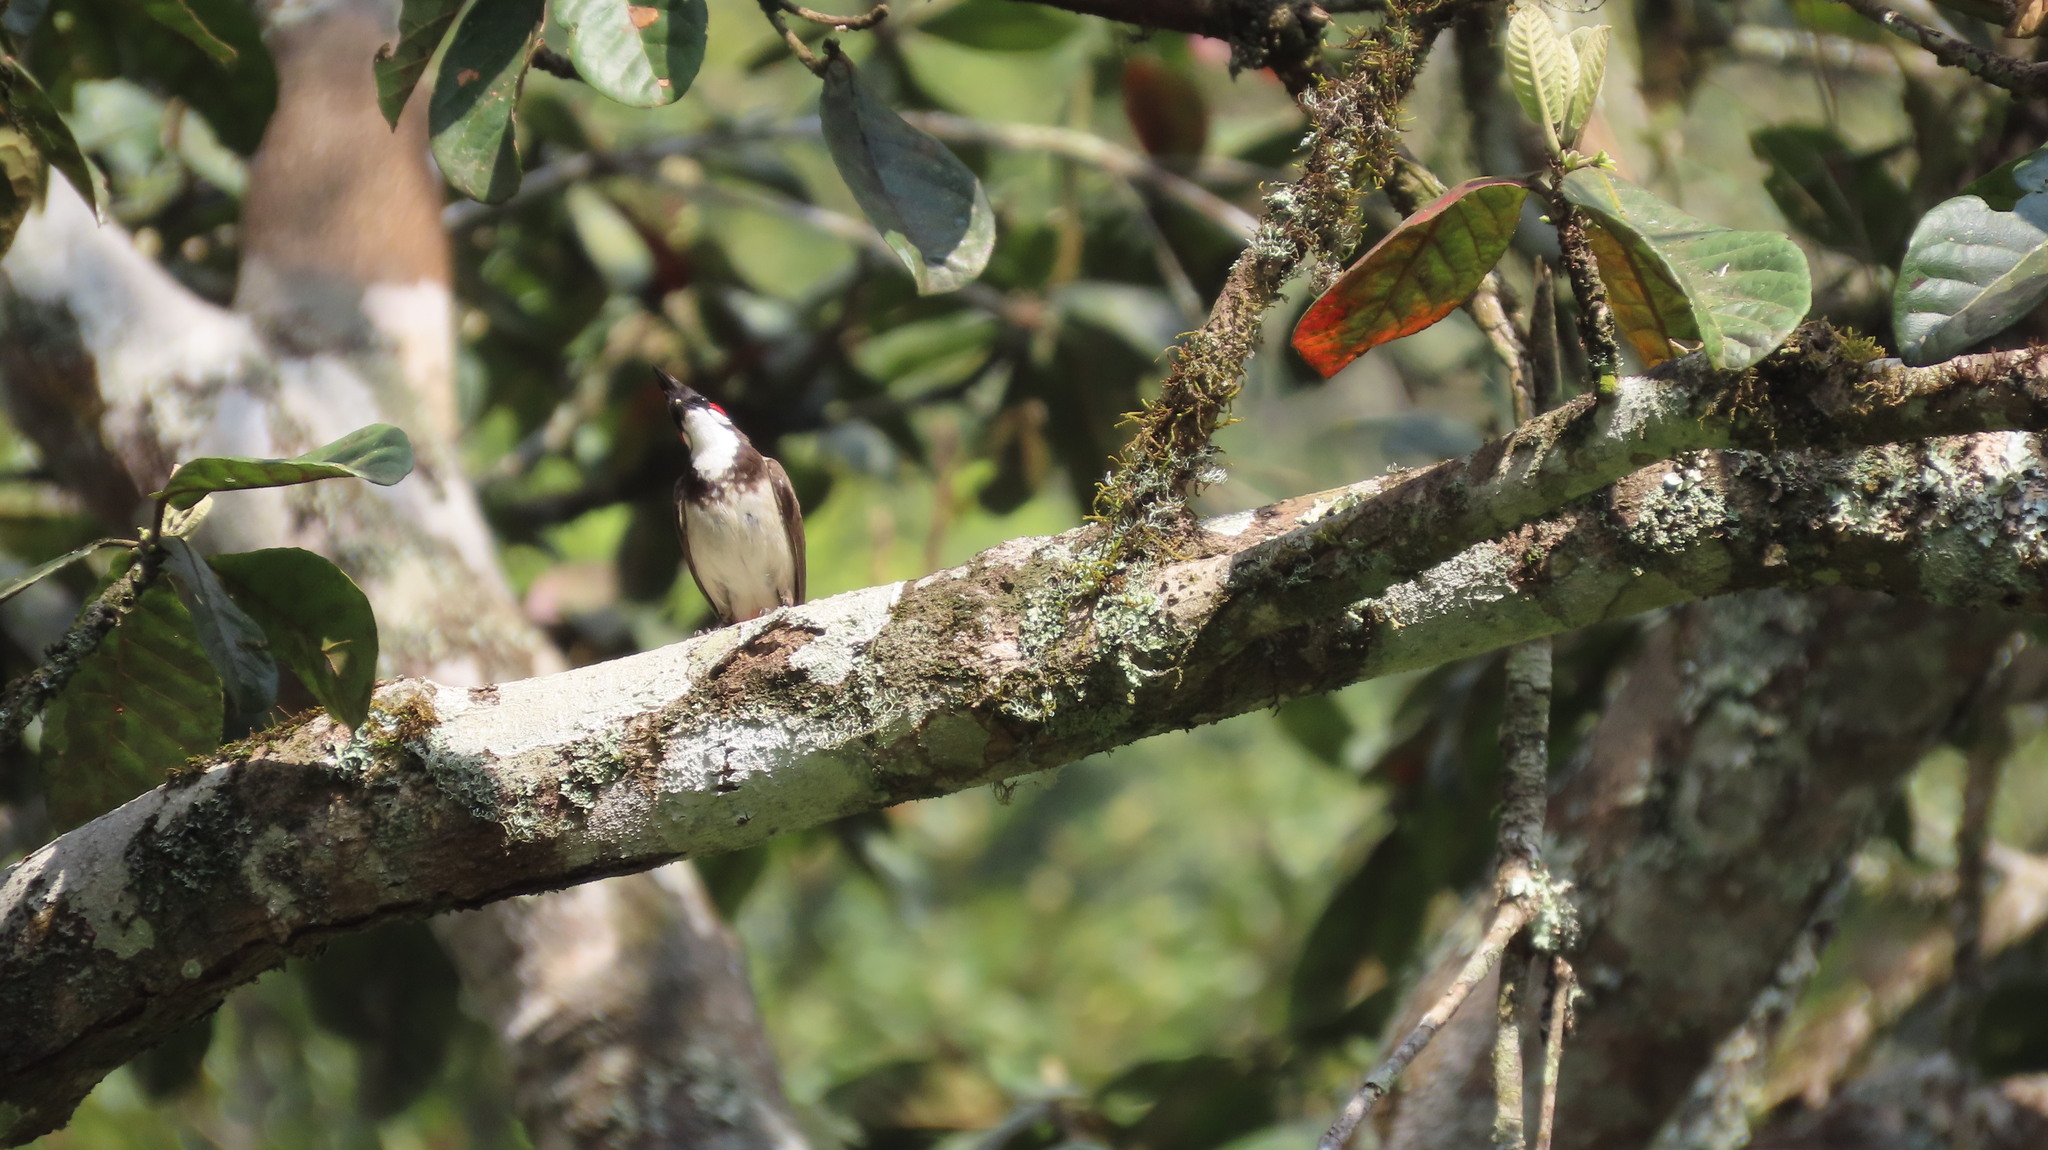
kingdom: Animalia
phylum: Chordata
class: Aves
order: Passeriformes
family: Pycnonotidae
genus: Pycnonotus
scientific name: Pycnonotus jocosus
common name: Red-whiskered bulbul
